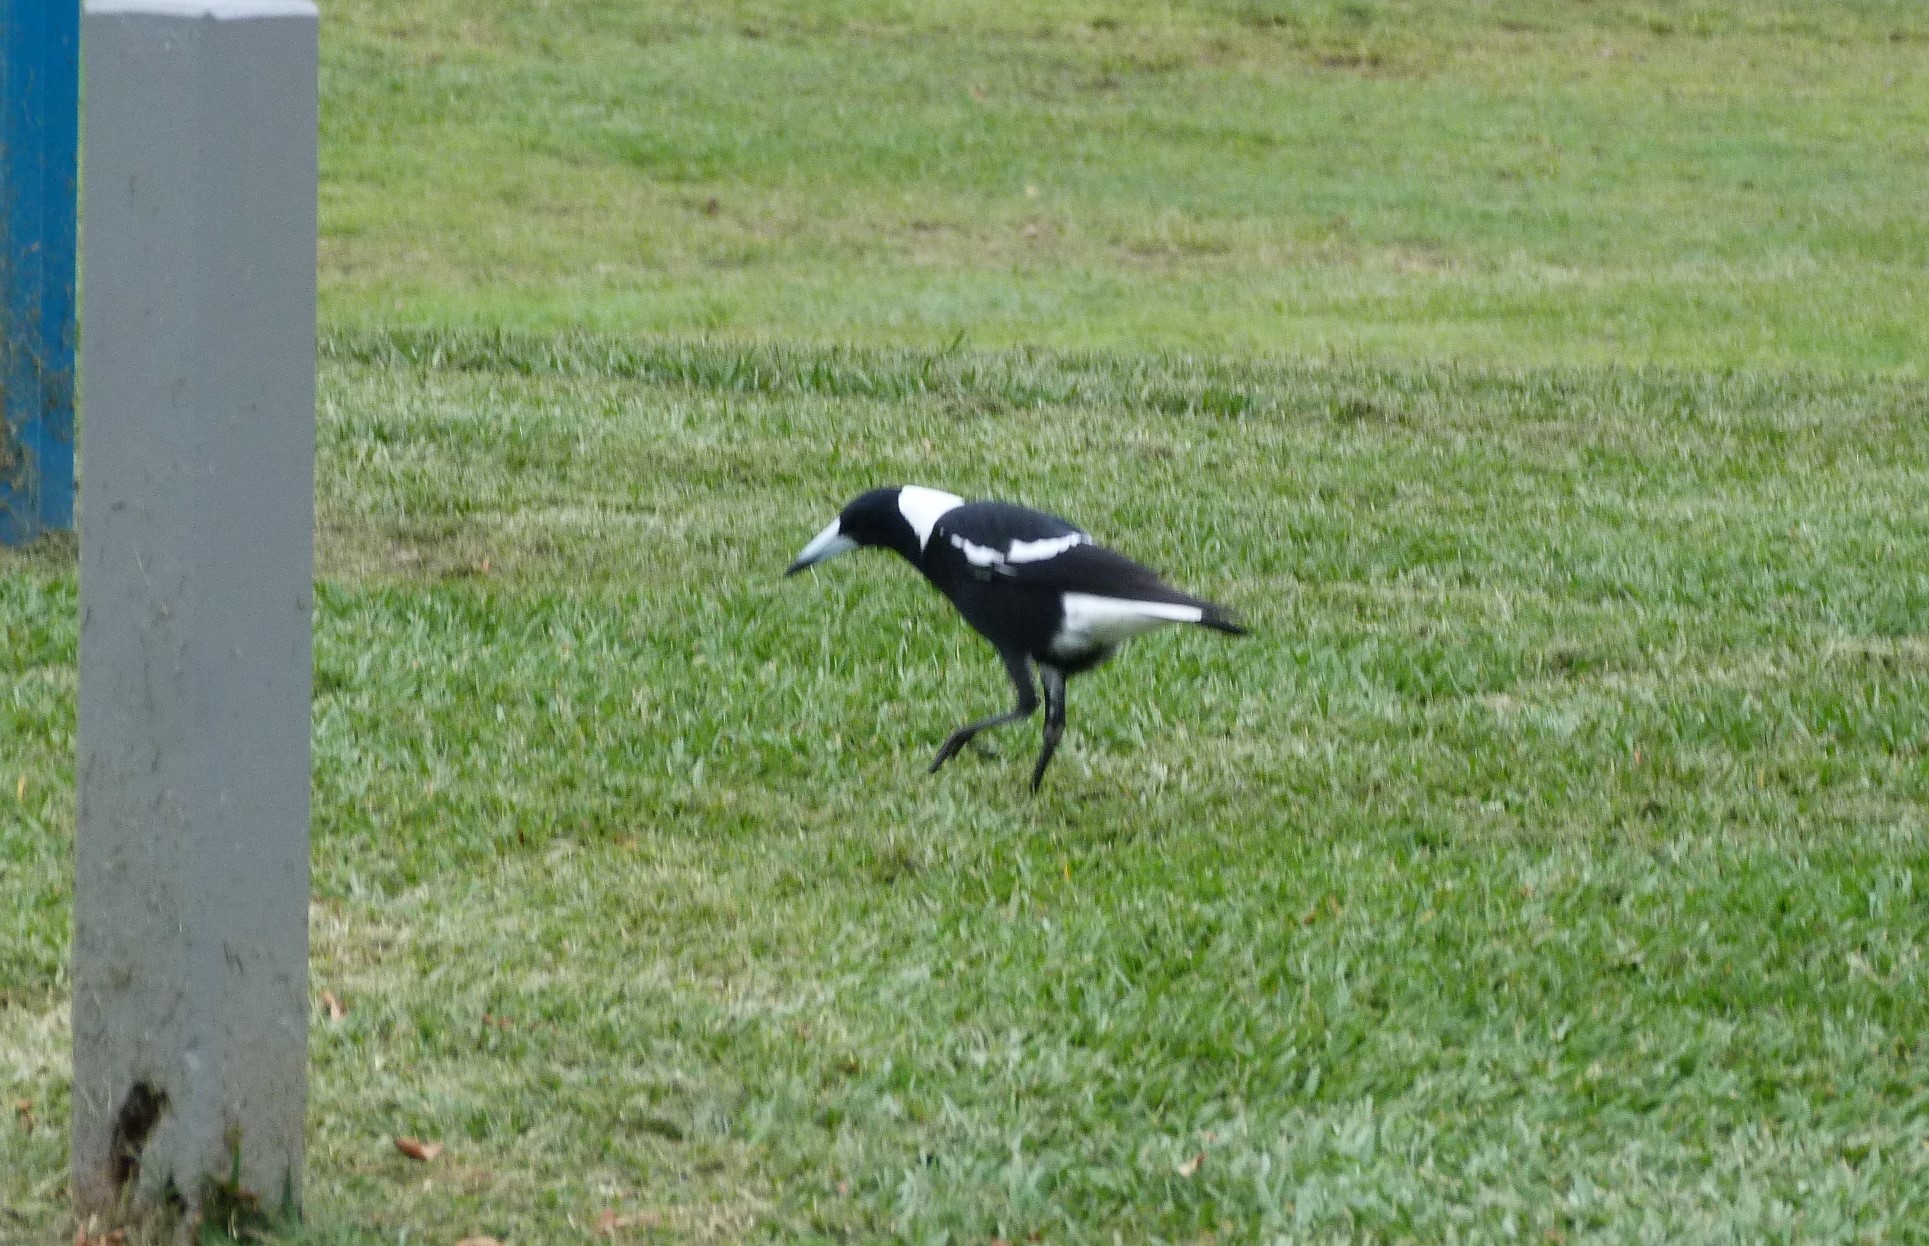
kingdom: Animalia
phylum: Chordata
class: Aves
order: Passeriformes
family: Cracticidae
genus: Gymnorhina
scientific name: Gymnorhina tibicen
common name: Australian magpie
